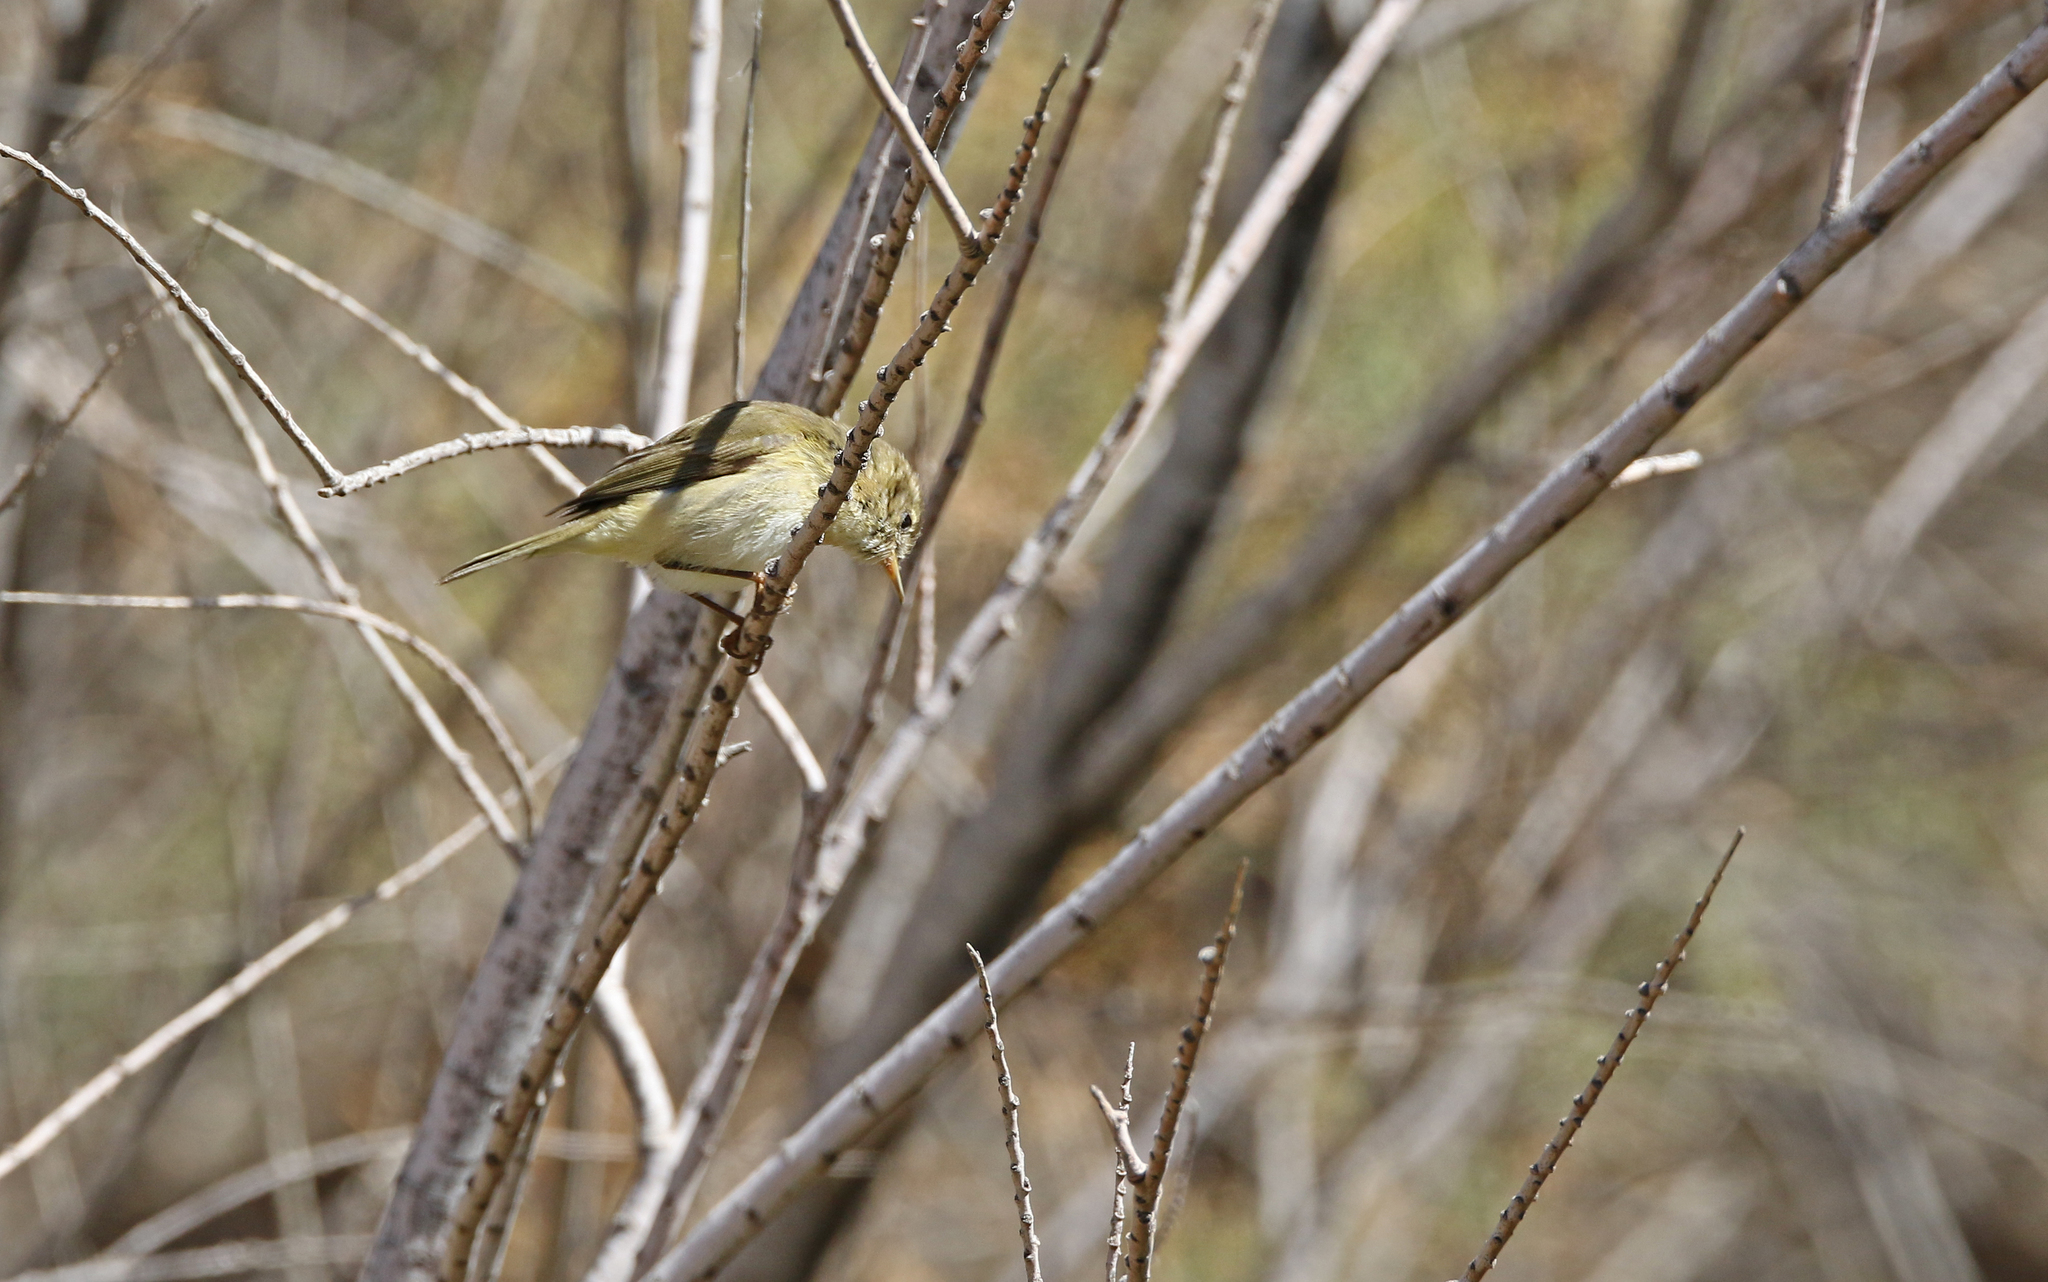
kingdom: Animalia
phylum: Chordata
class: Aves
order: Passeriformes
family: Phylloscopidae
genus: Phylloscopus
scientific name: Phylloscopus collybita
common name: Common chiffchaff
